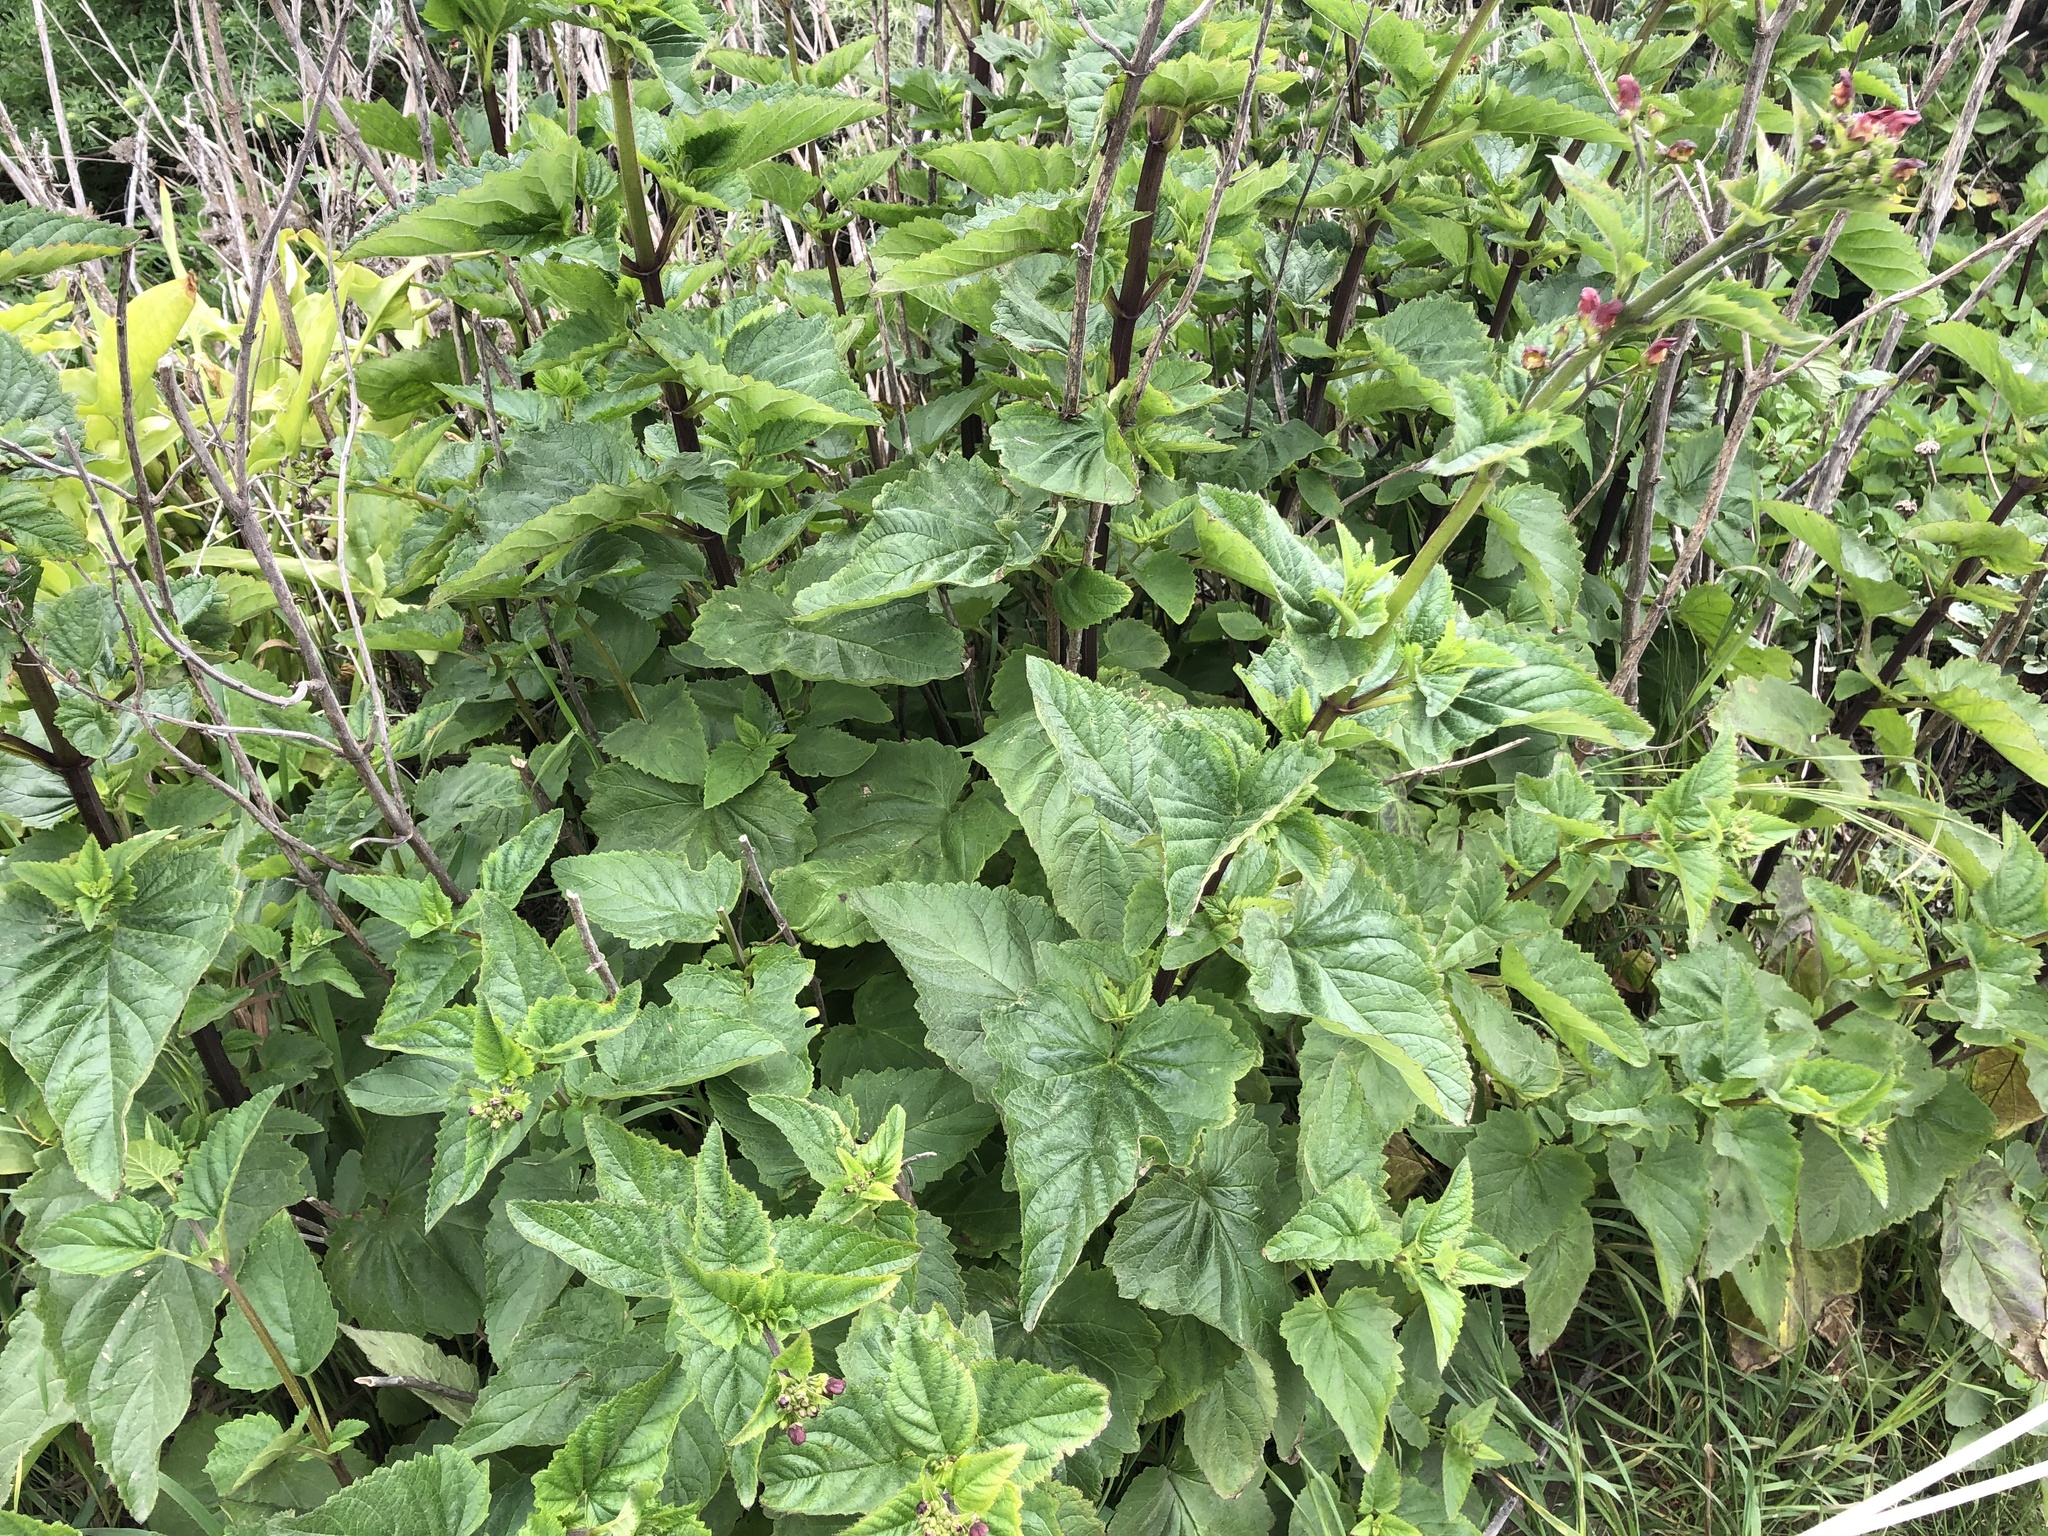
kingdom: Plantae
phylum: Tracheophyta
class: Magnoliopsida
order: Lamiales
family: Scrophulariaceae
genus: Scrophularia
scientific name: Scrophularia californica
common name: California figwort
